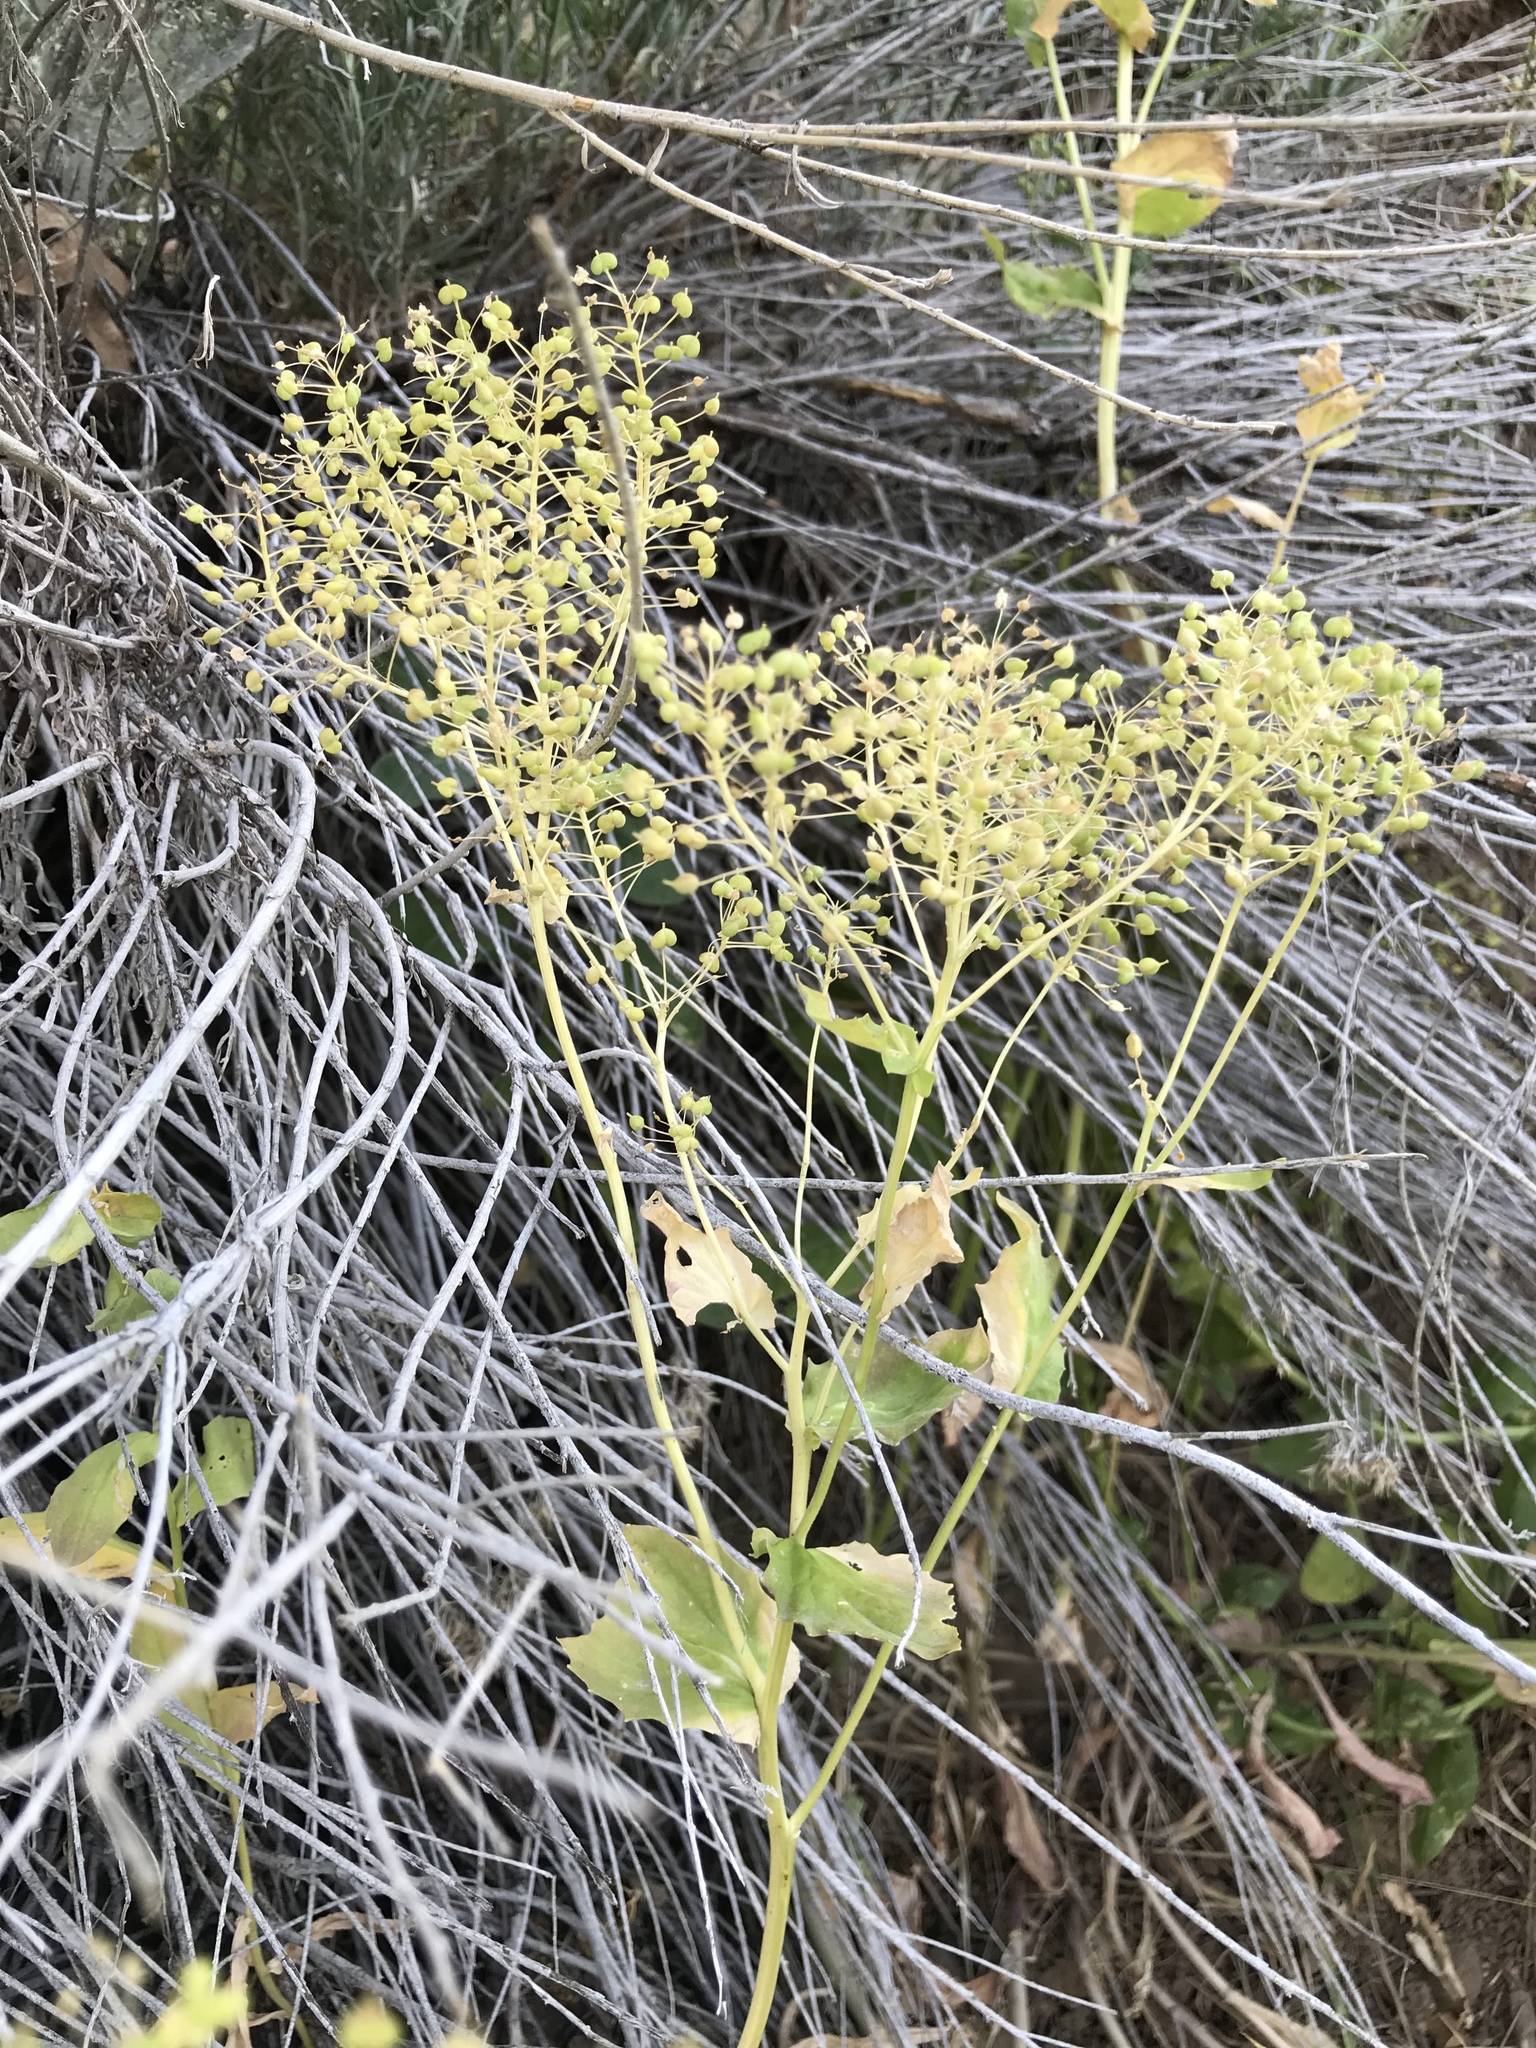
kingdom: Plantae
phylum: Tracheophyta
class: Magnoliopsida
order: Brassicales
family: Brassicaceae
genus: Lepidium
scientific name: Lepidium draba
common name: Hoary cress
